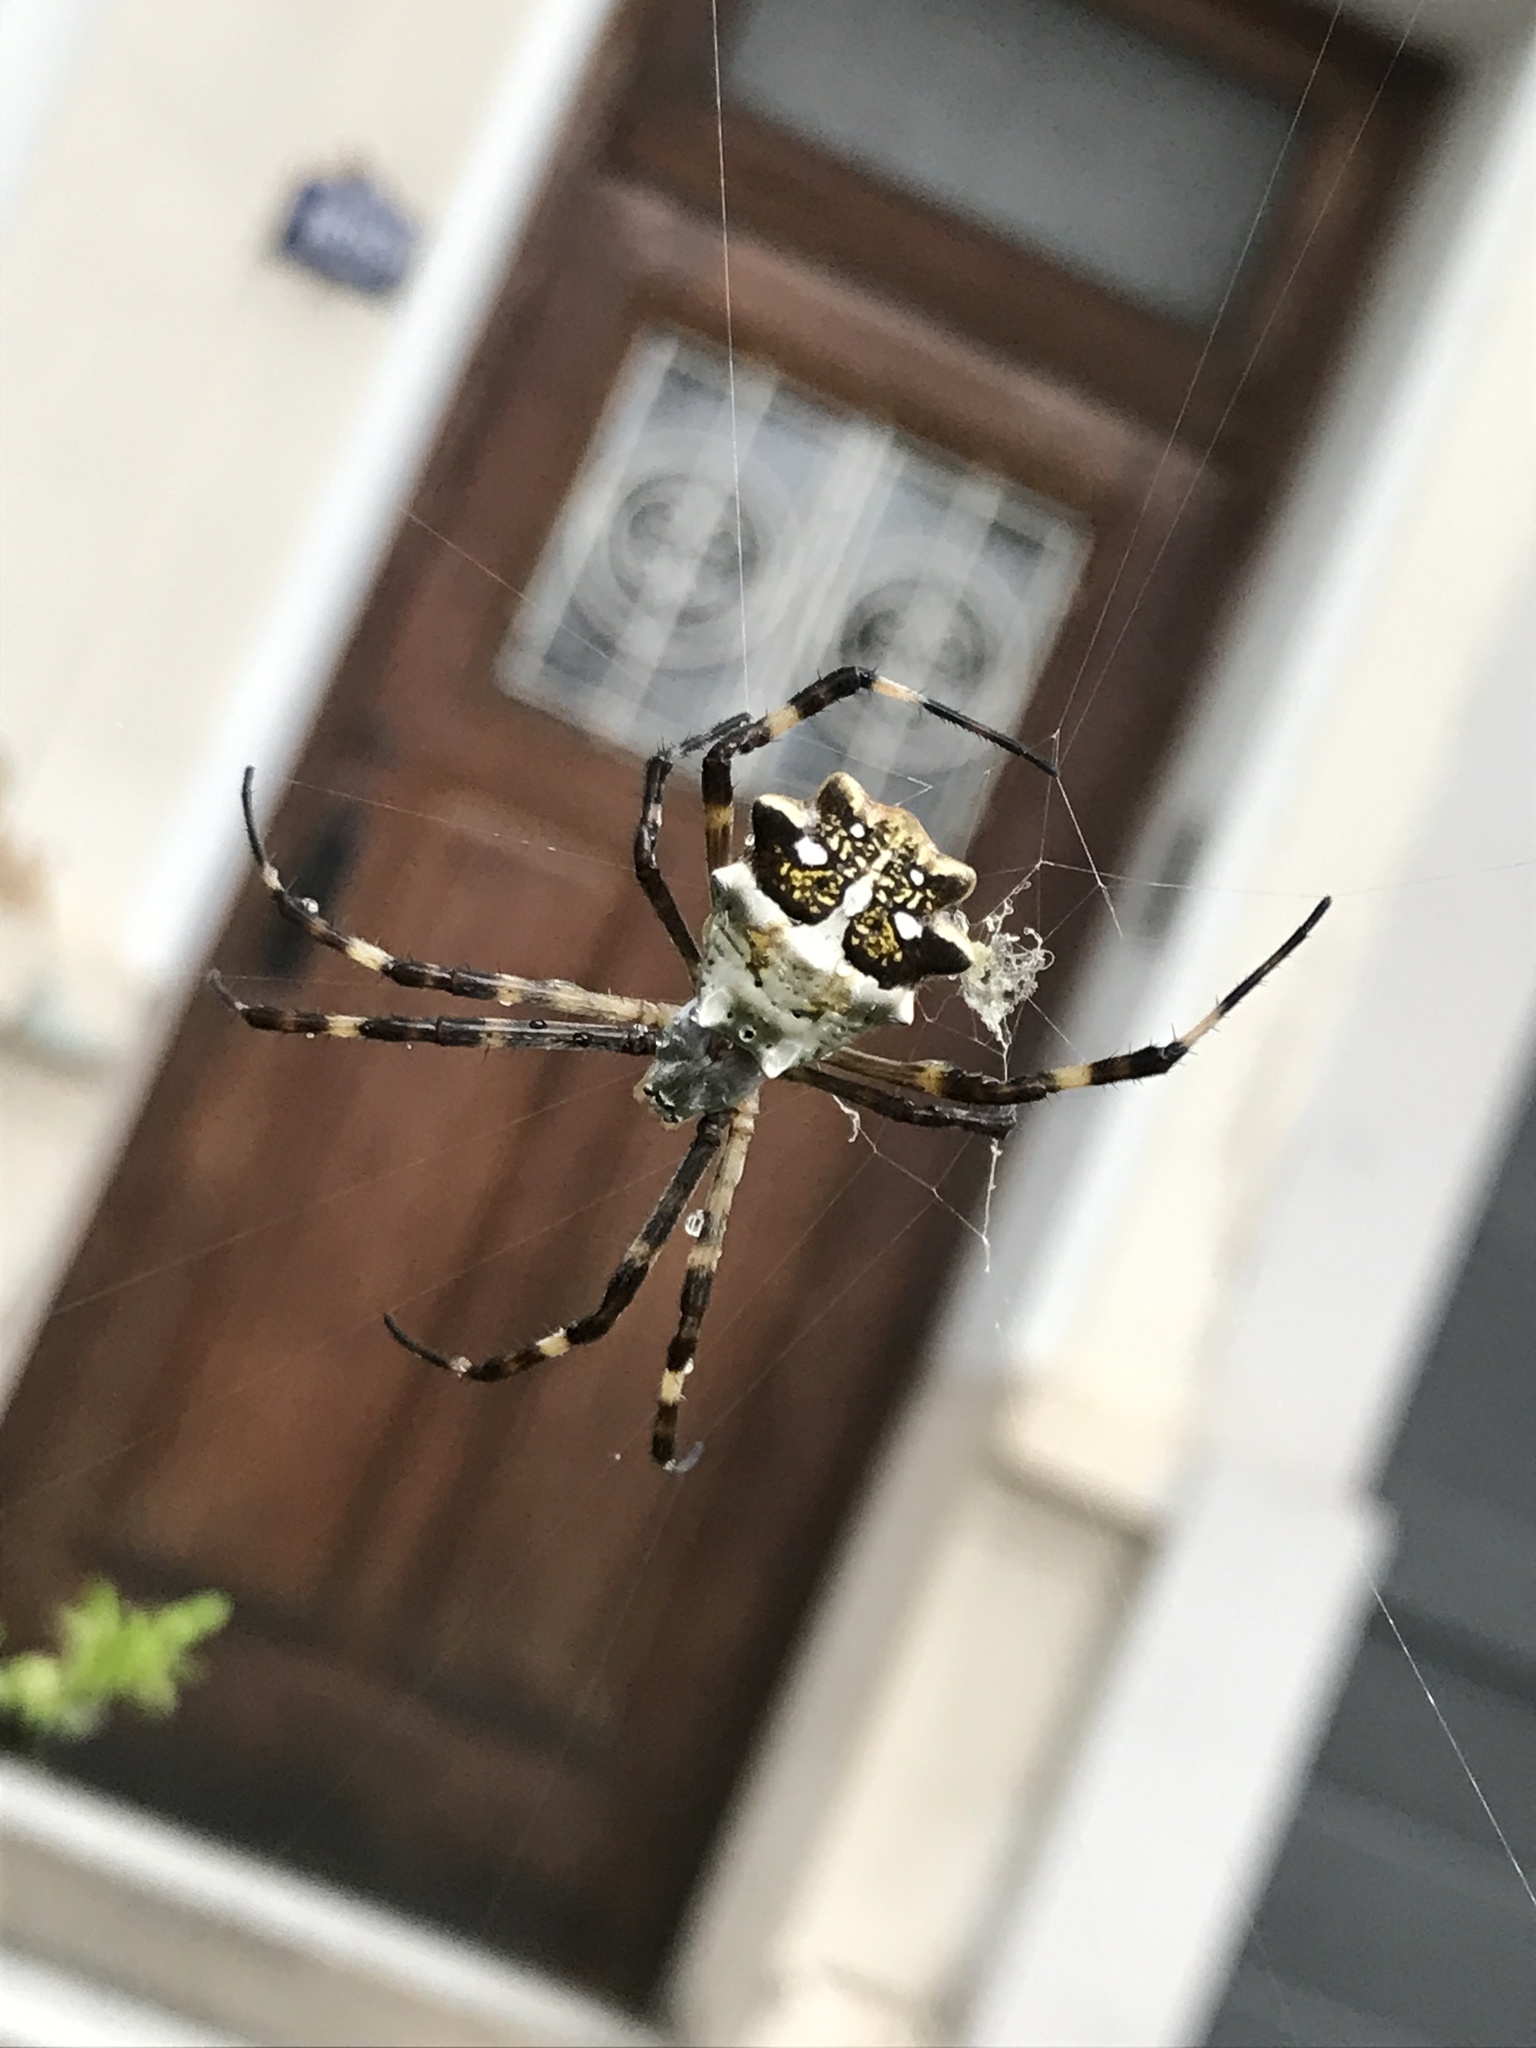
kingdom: Animalia
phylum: Arthropoda
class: Arachnida
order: Araneae
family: Araneidae
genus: Argiope
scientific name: Argiope argentata
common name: Orb weavers
